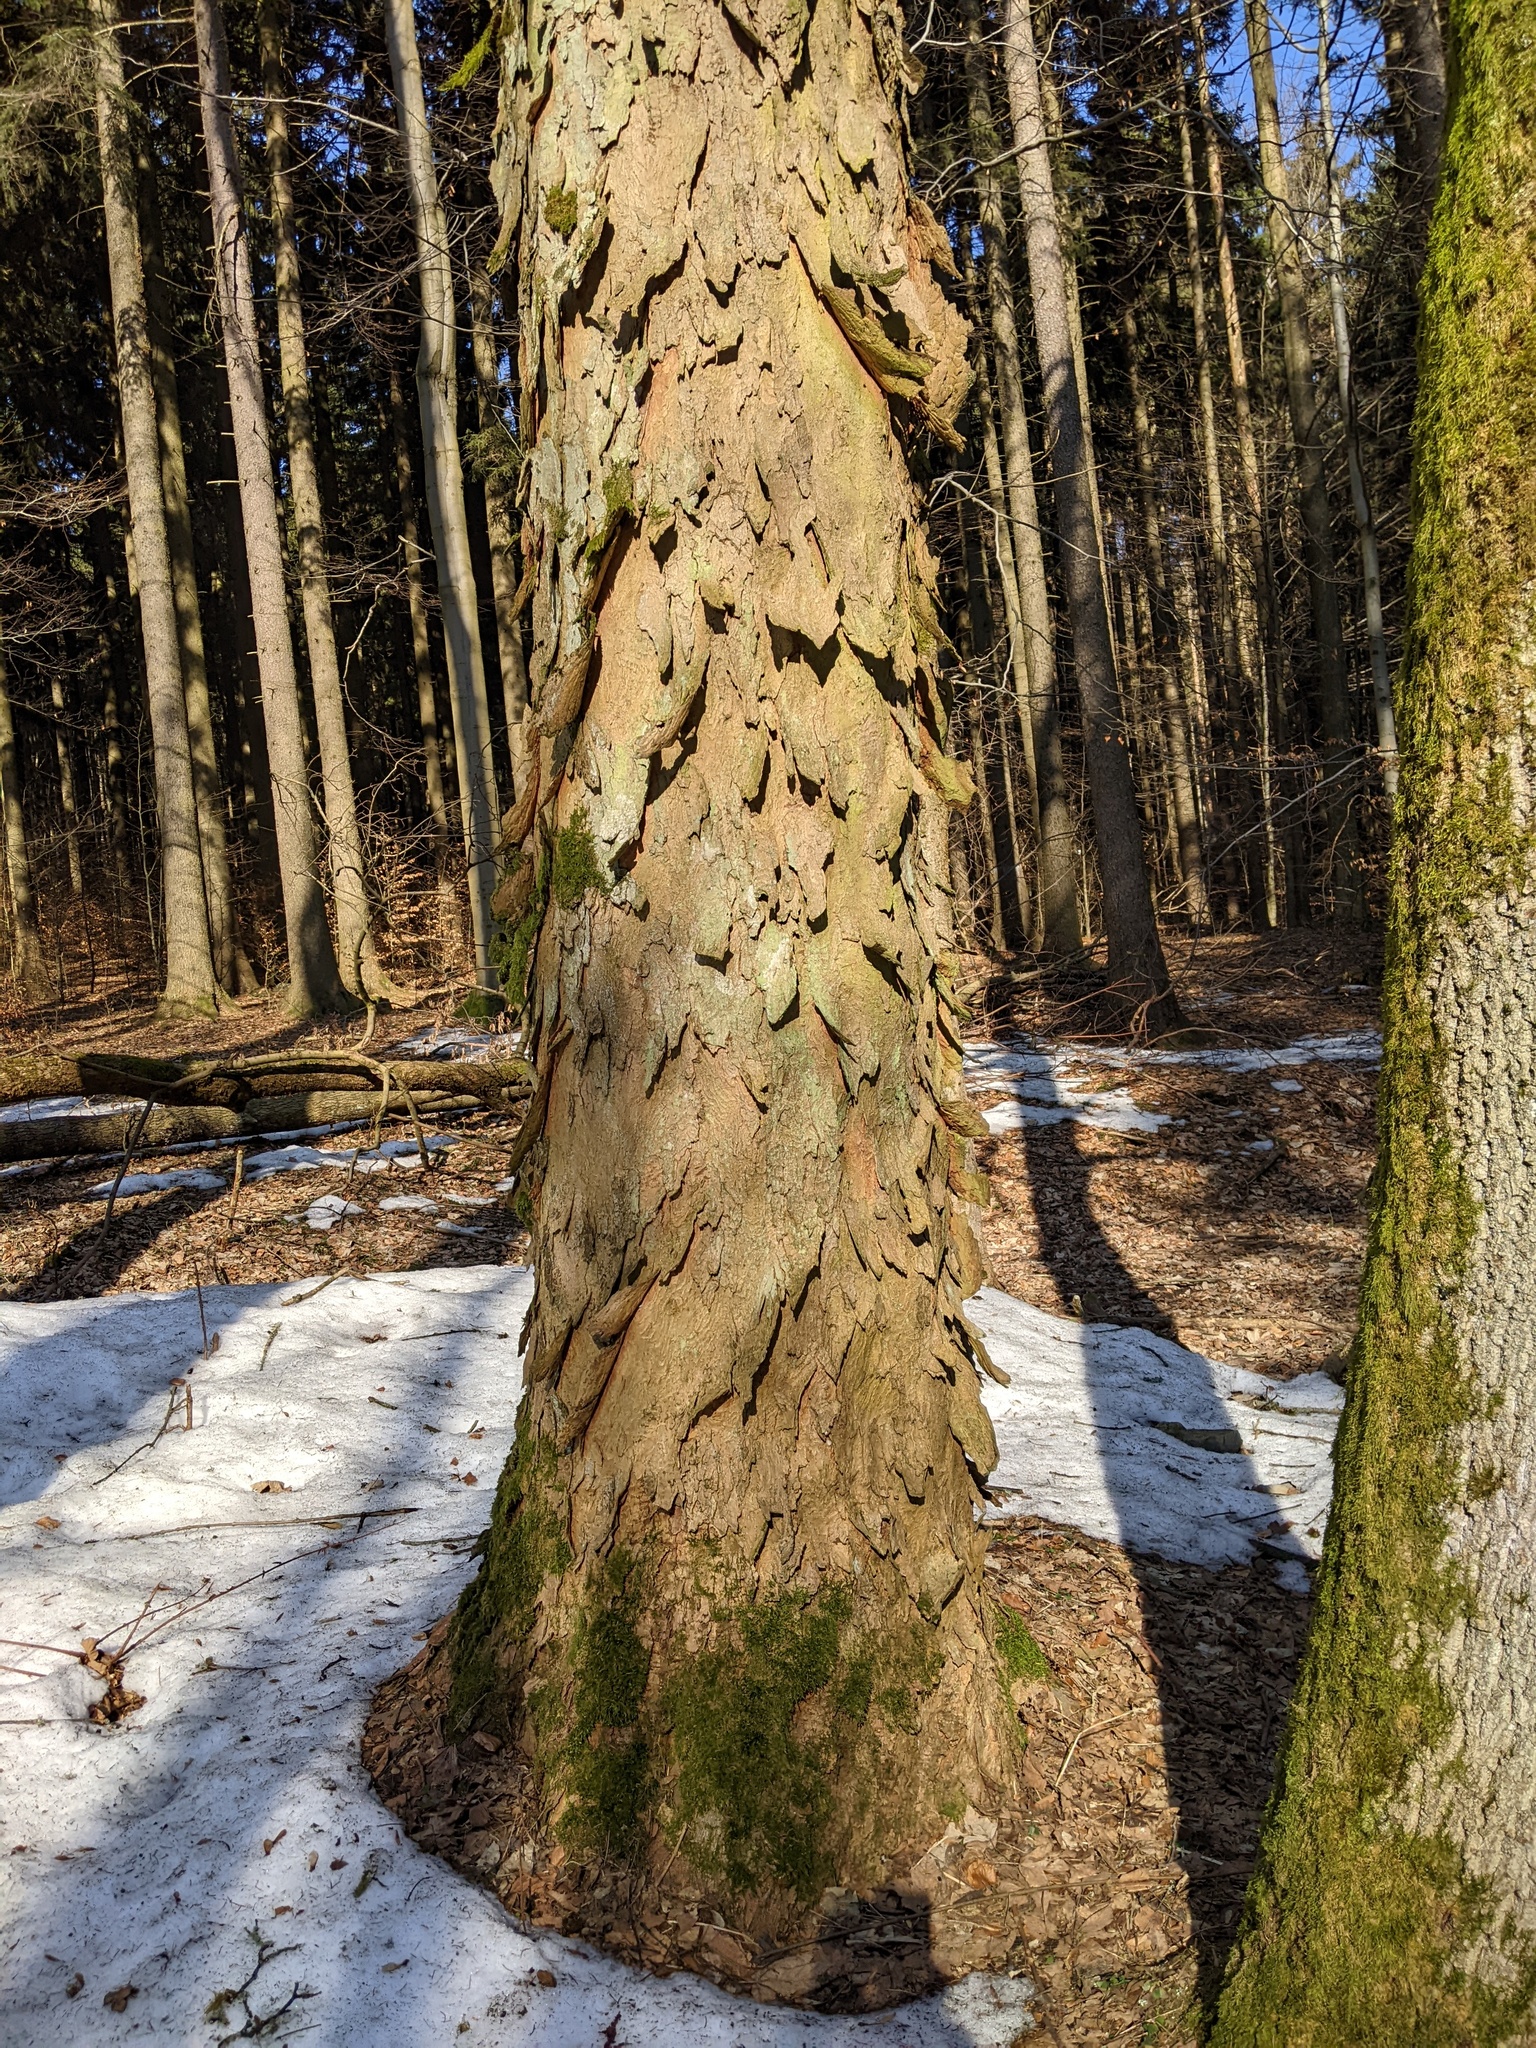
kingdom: Plantae
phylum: Tracheophyta
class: Magnoliopsida
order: Sapindales
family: Sapindaceae
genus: Acer
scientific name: Acer pseudoplatanus
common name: Sycamore
